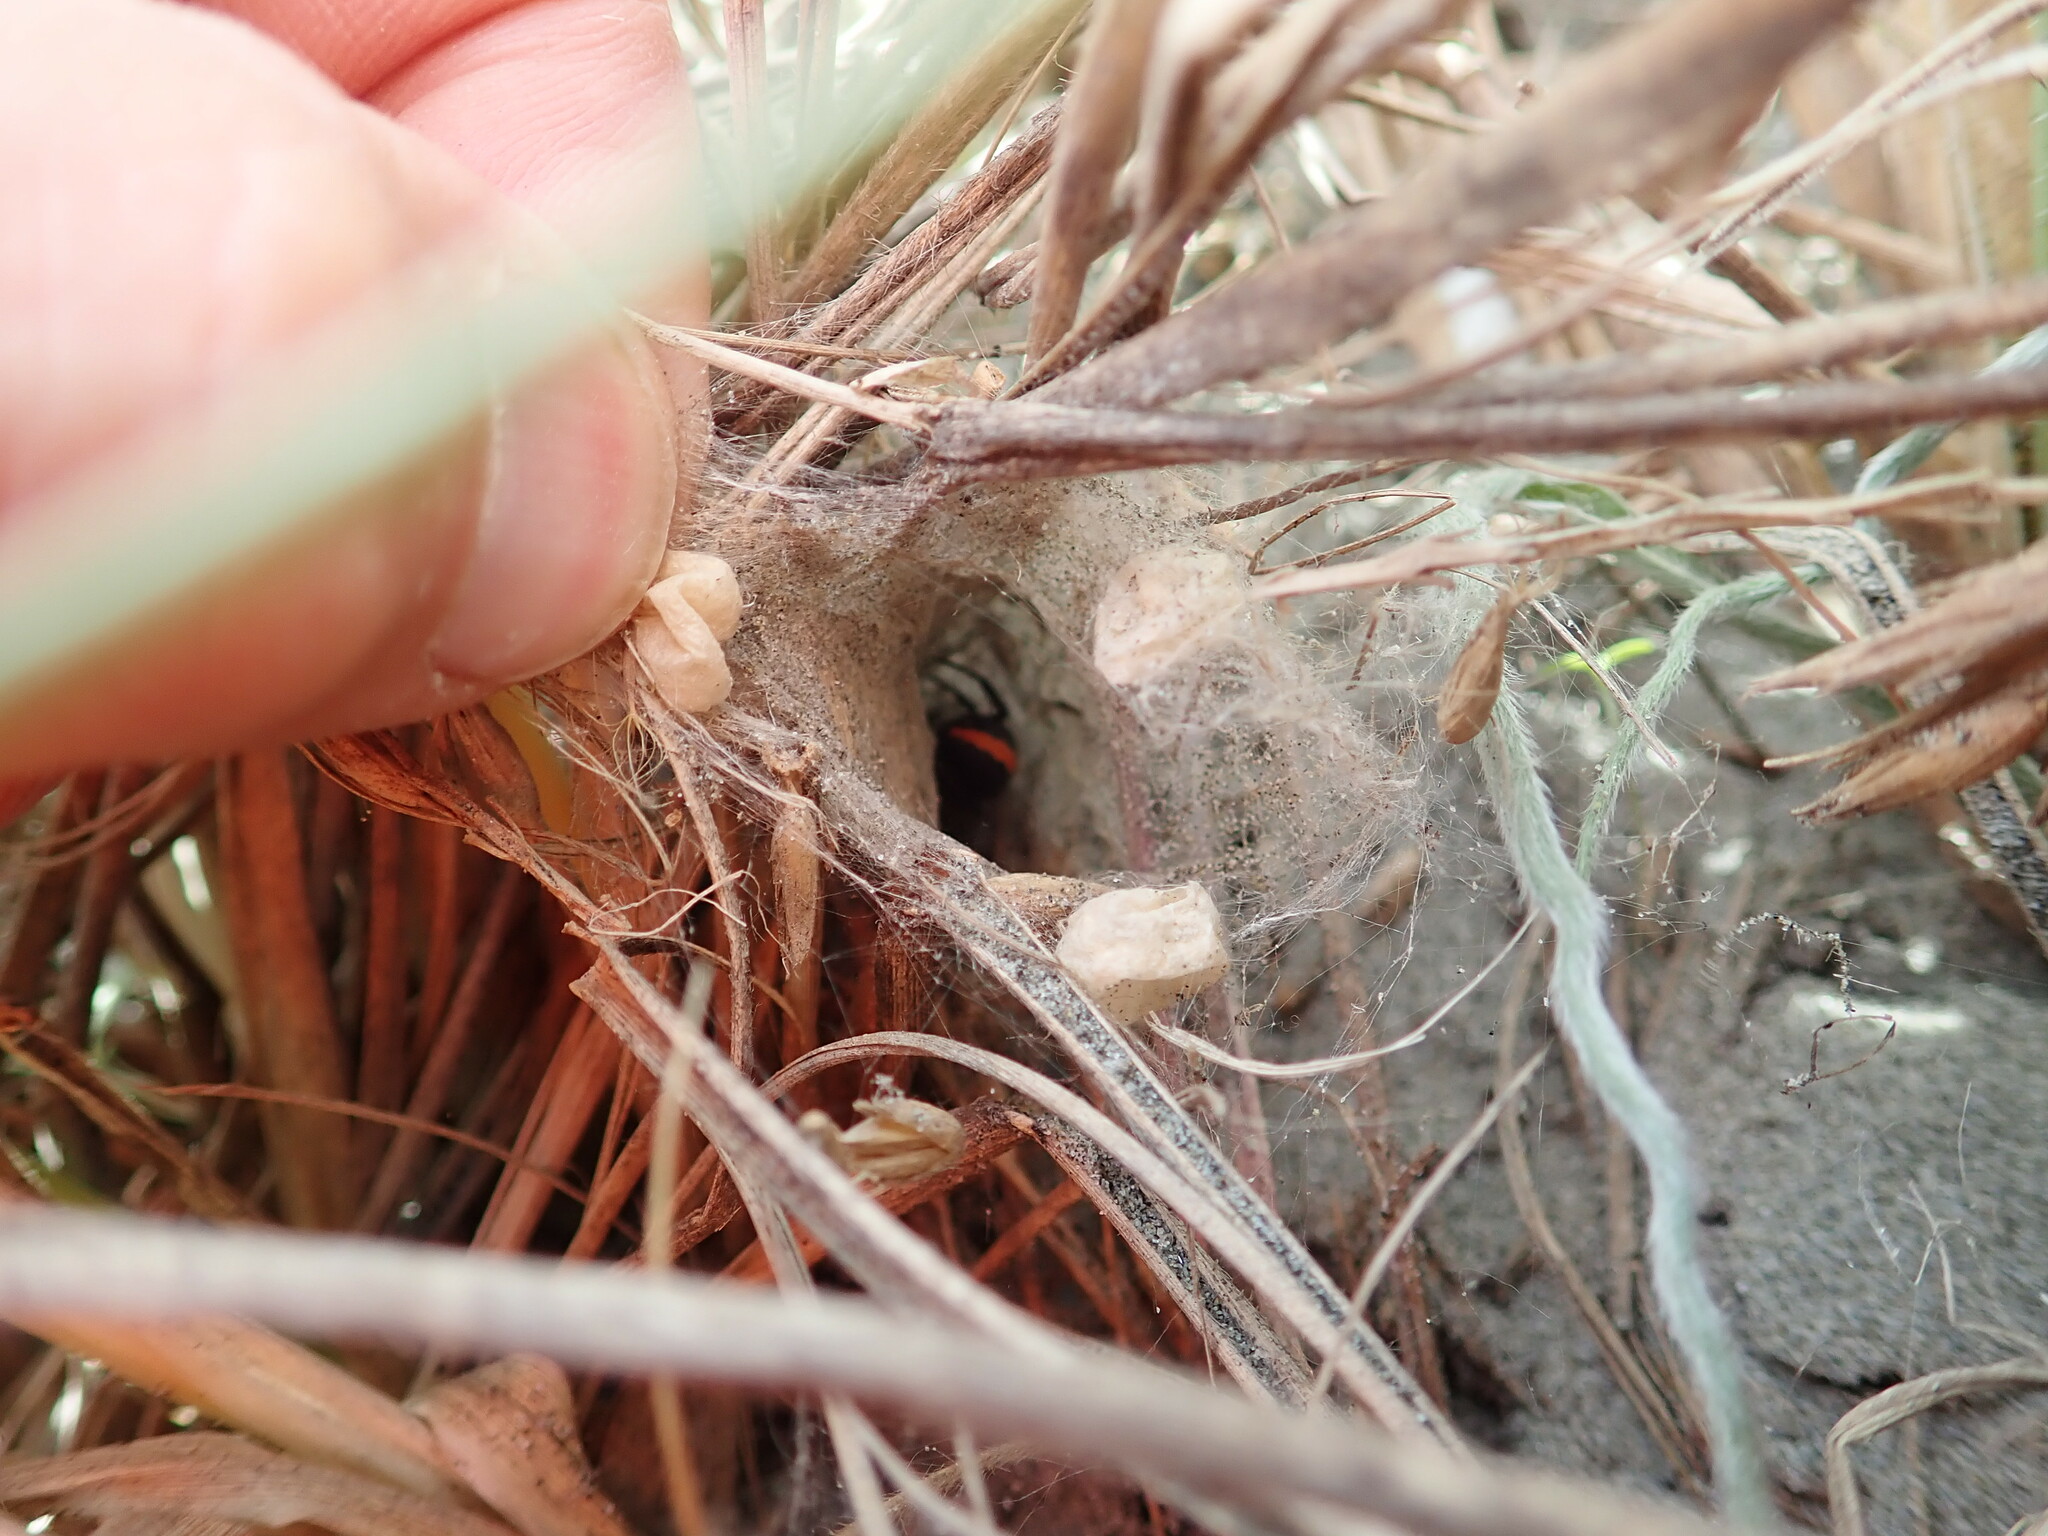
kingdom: Animalia
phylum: Arthropoda
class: Arachnida
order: Araneae
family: Theridiidae
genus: Latrodectus
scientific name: Latrodectus katipo
